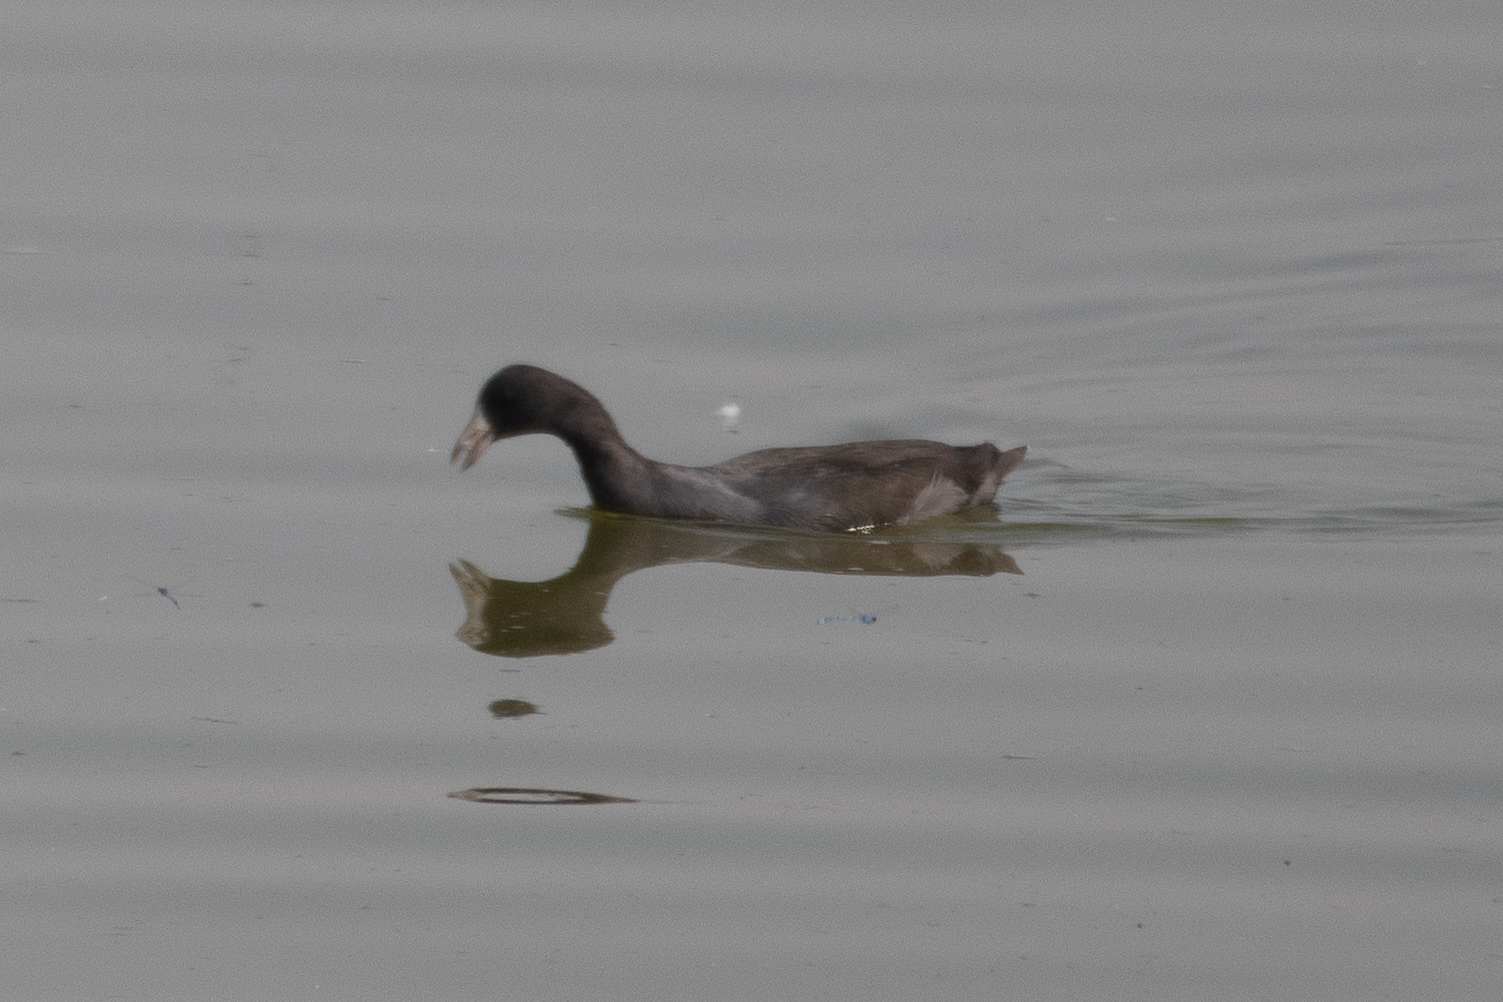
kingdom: Animalia
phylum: Chordata
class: Aves
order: Gruiformes
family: Rallidae
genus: Fulica
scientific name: Fulica americana
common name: American coot
